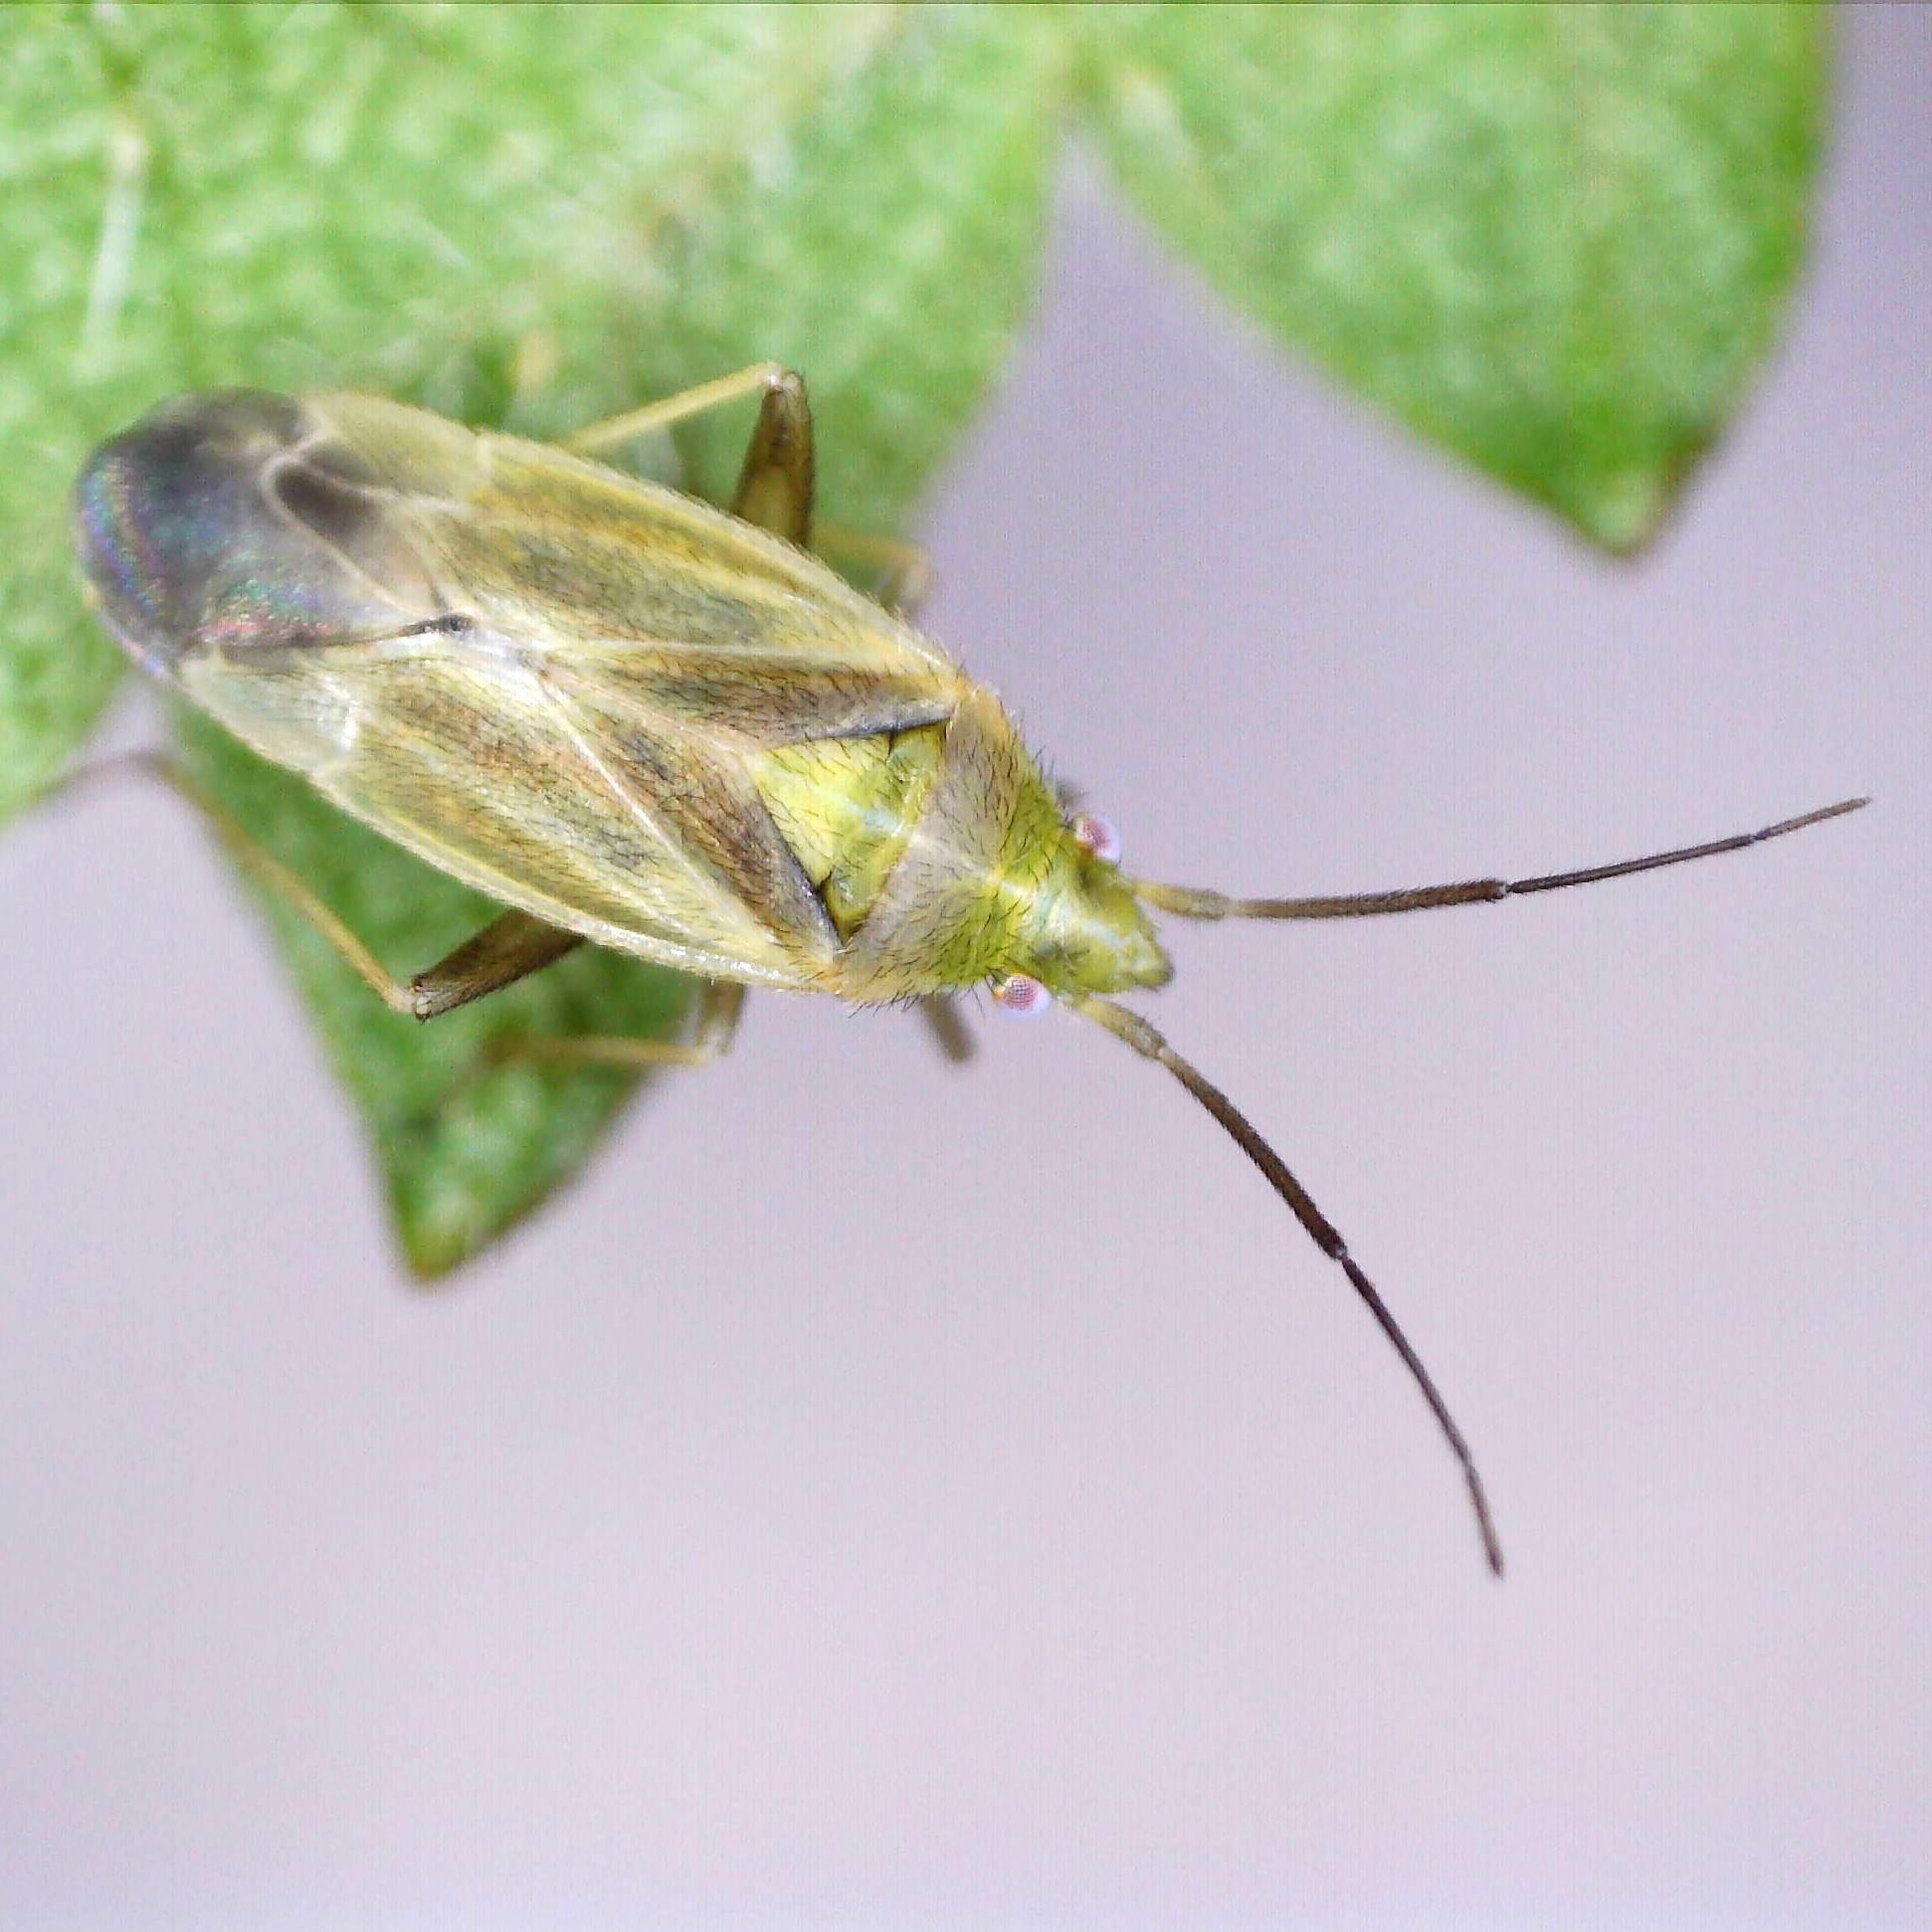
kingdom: Animalia
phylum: Arthropoda
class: Insecta
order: Hemiptera
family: Miridae
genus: Amblytylus
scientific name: Amblytylus nasutus
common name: Plant bug
